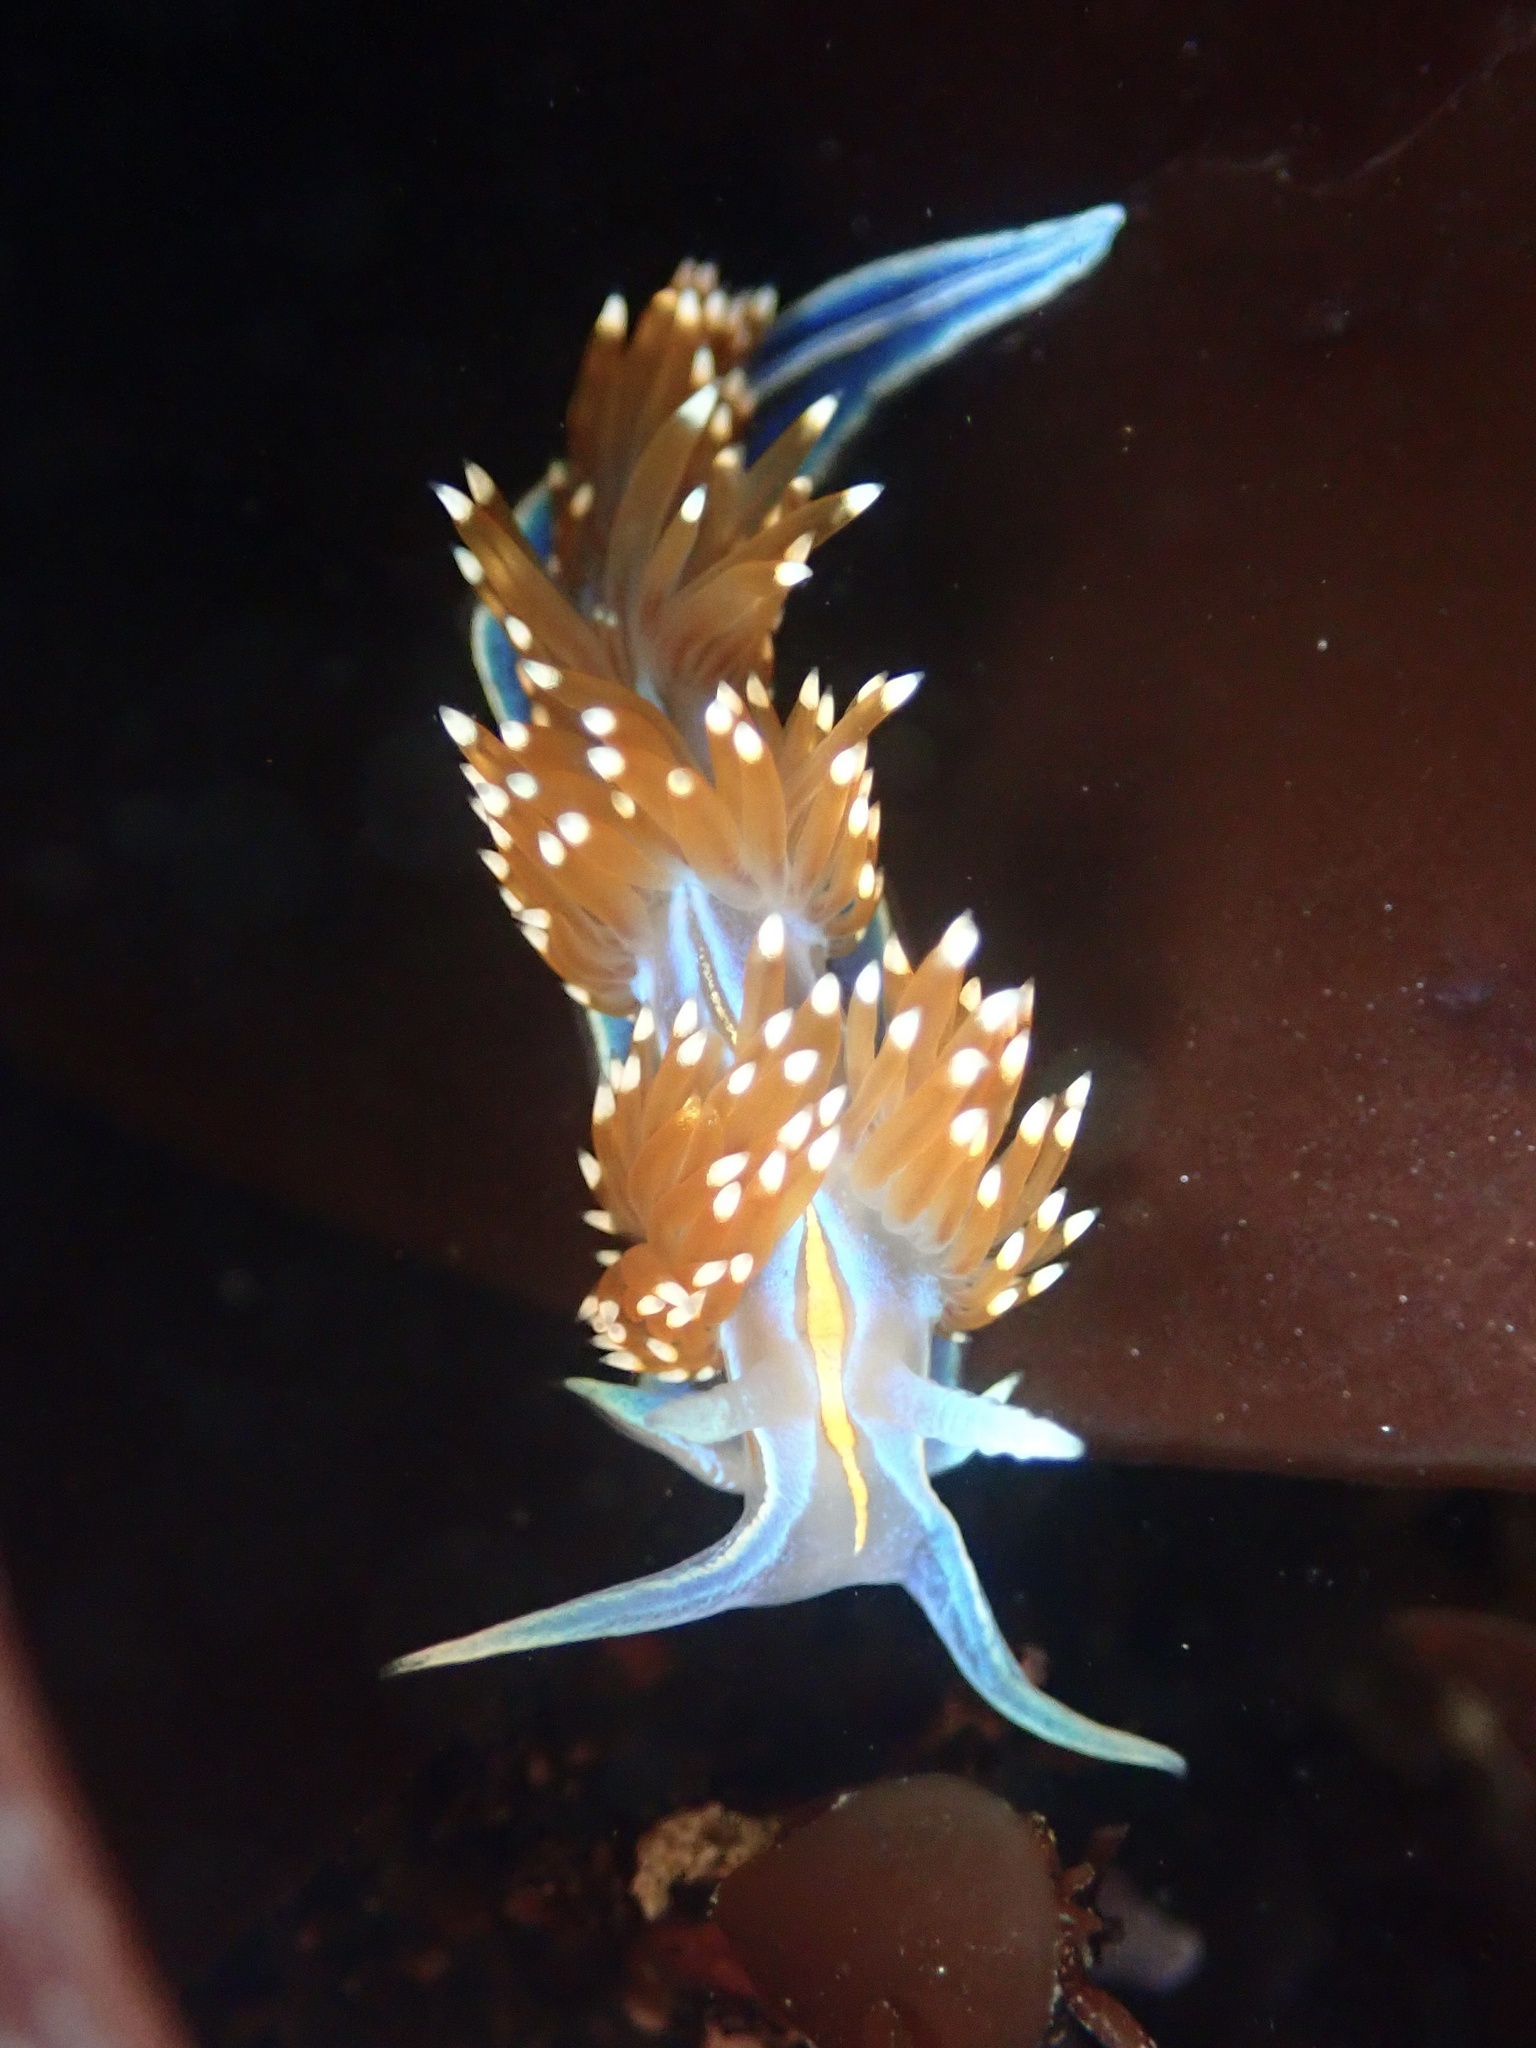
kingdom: Animalia
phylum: Mollusca
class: Gastropoda
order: Nudibranchia
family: Myrrhinidae
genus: Hermissenda
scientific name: Hermissenda opalescens
